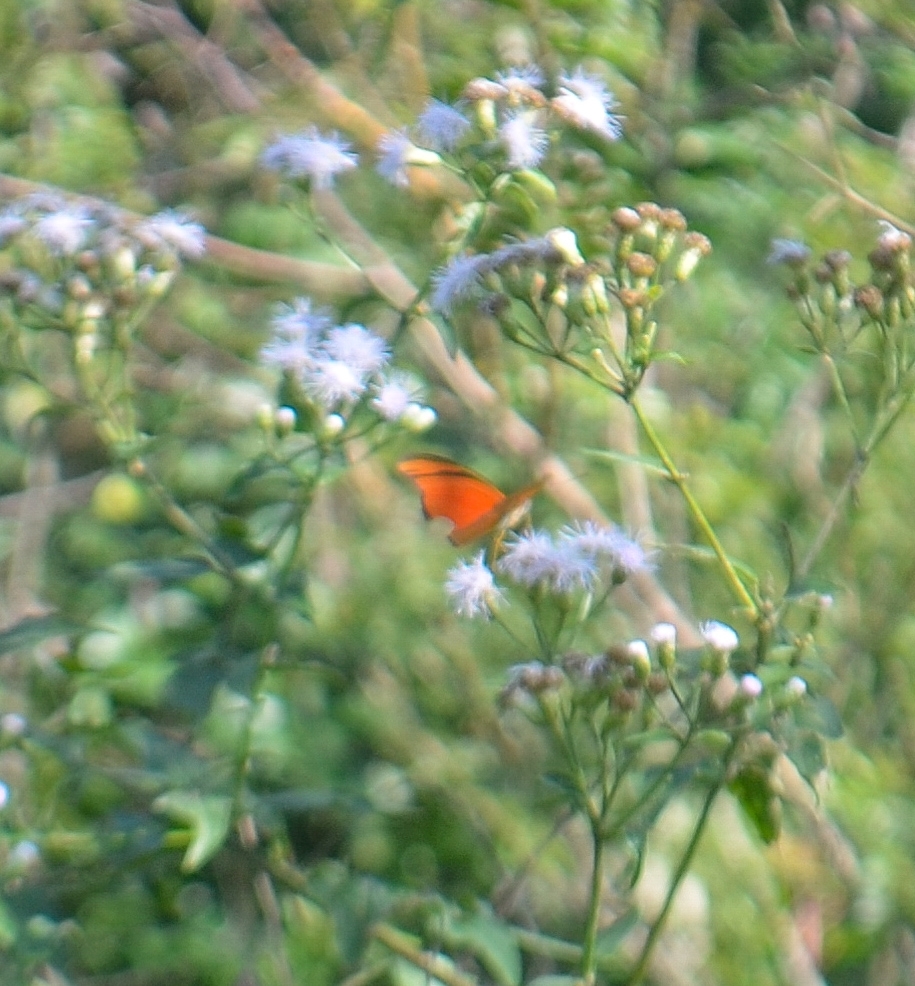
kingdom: Animalia
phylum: Arthropoda
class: Insecta
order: Lepidoptera
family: Nymphalidae
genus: Dryas
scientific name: Dryas iulia
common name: Flambeau
